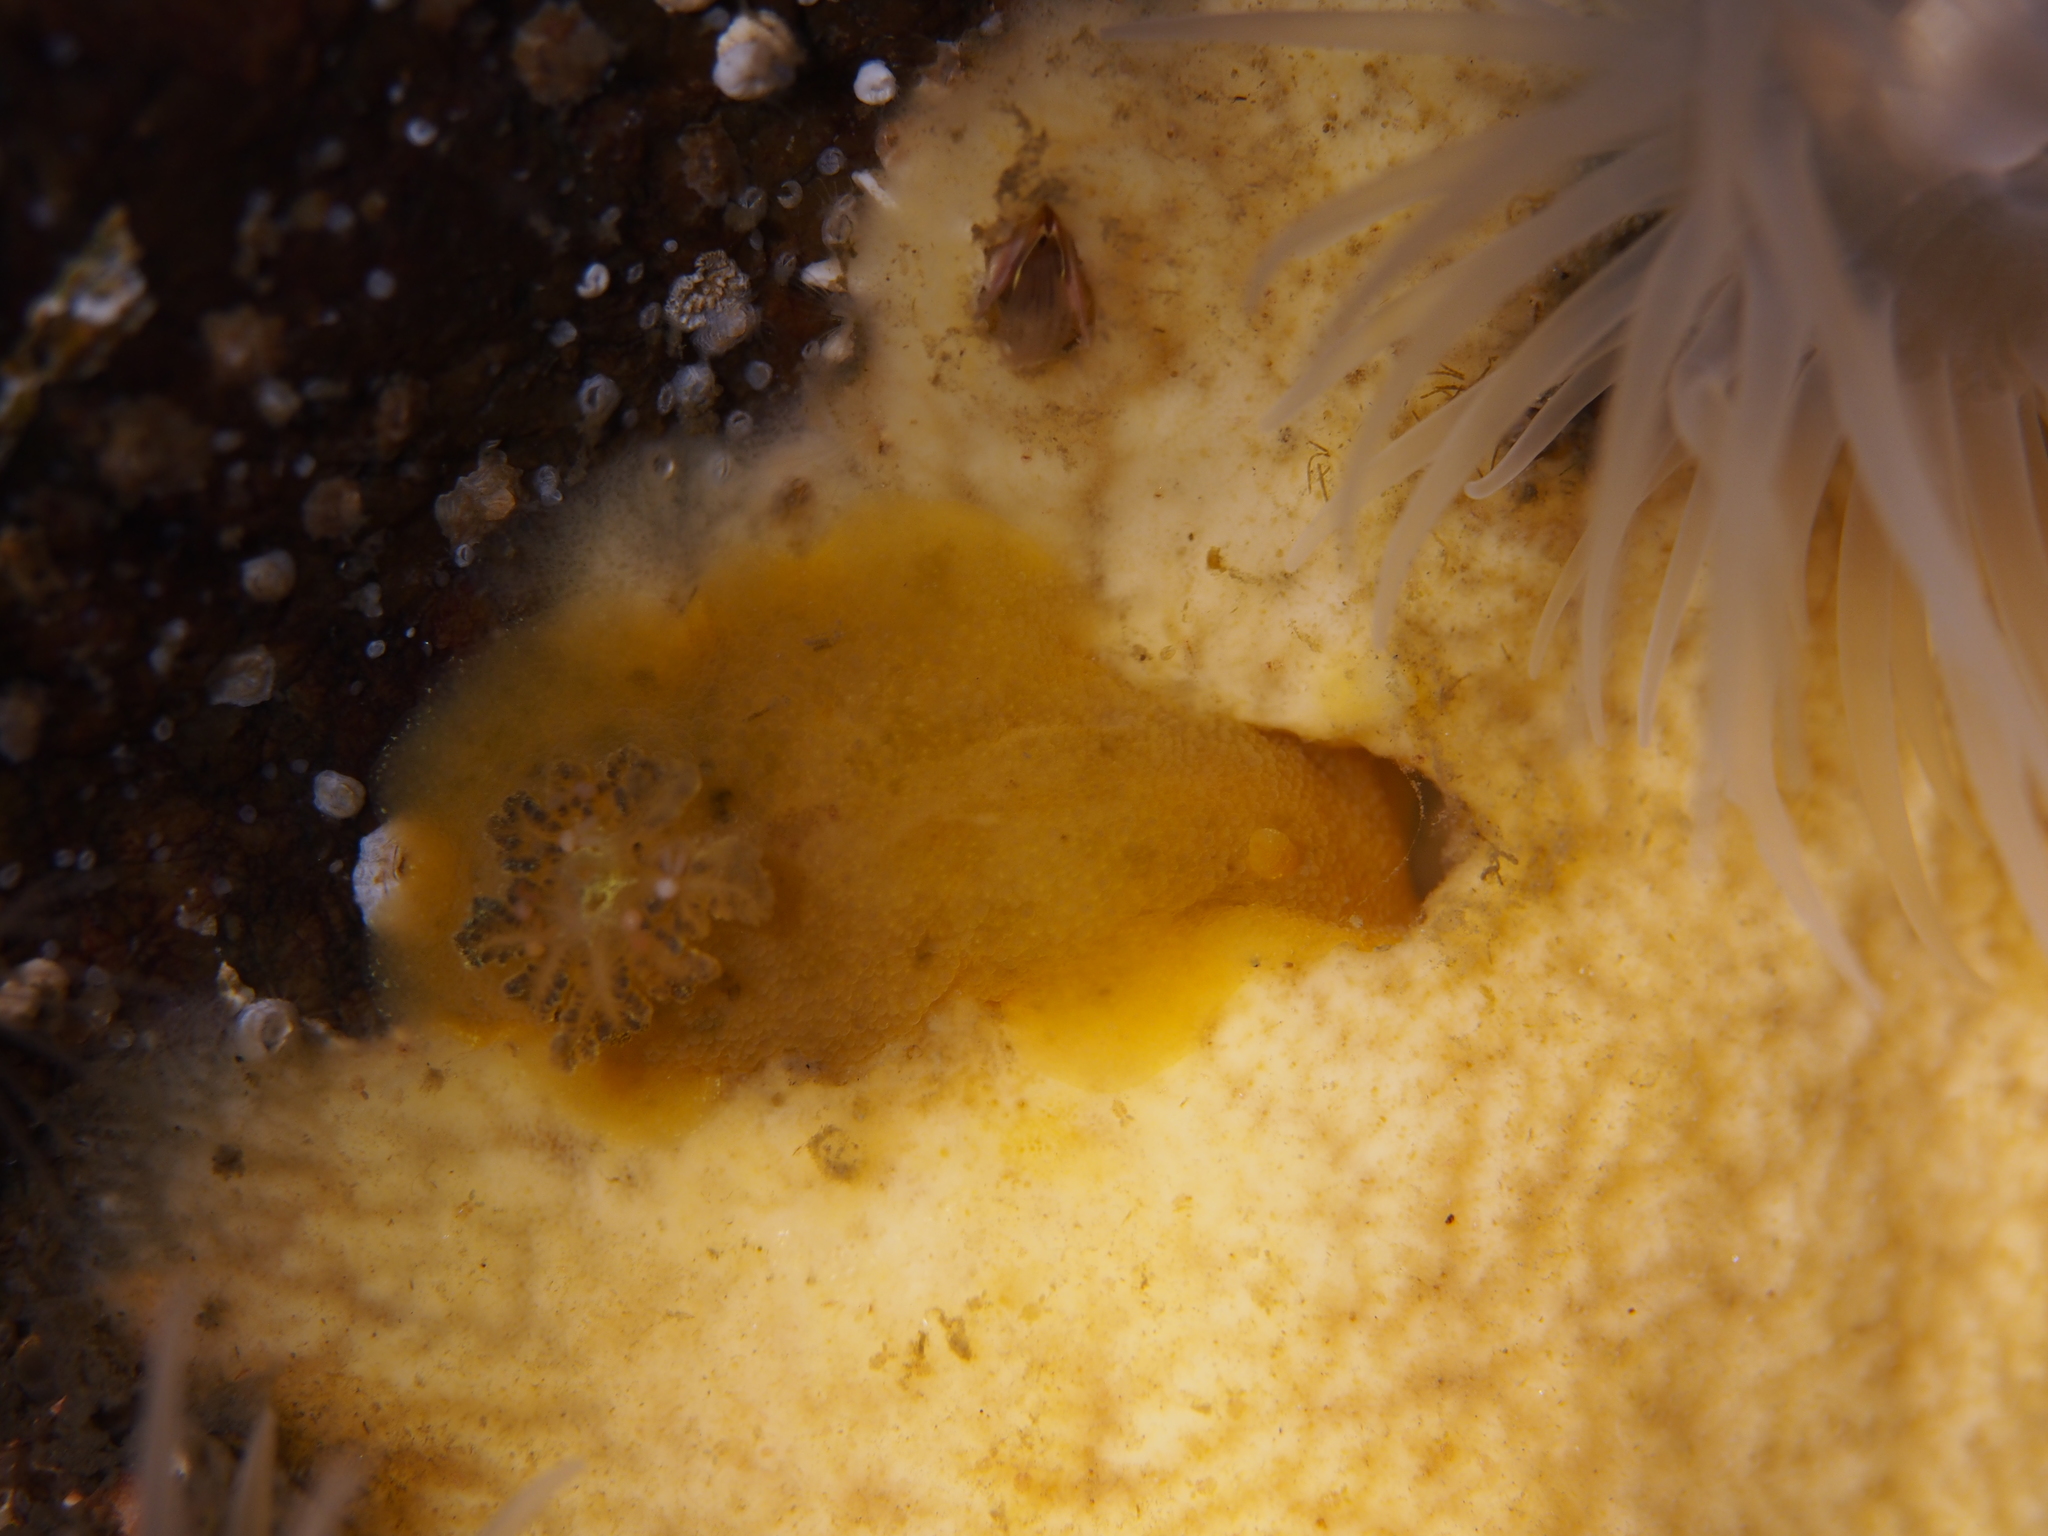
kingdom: Animalia
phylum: Mollusca
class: Gastropoda
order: Nudibranchia
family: Dorididae
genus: Doris
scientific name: Doris pseudoargus
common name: Sea lemon
